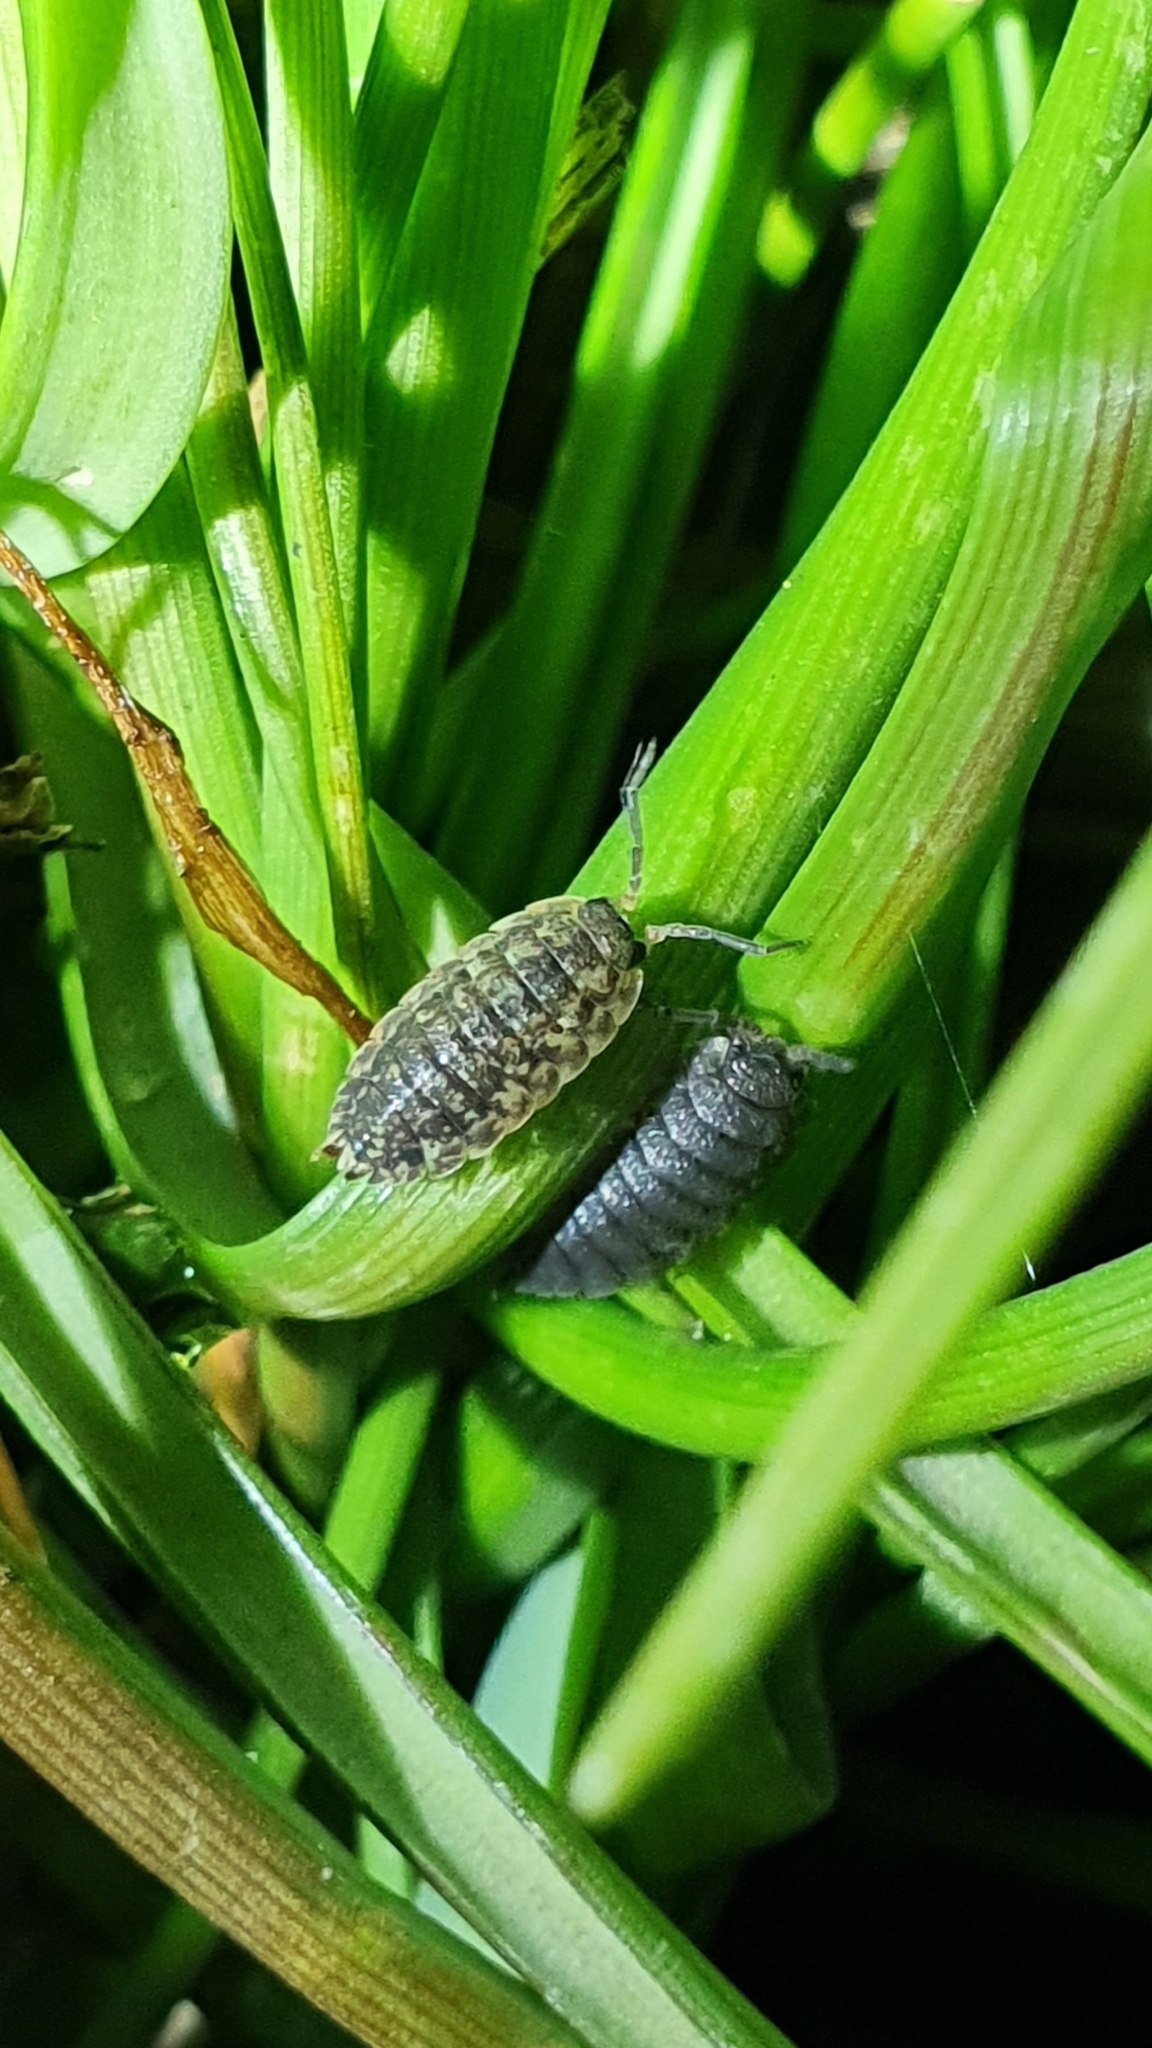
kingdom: Animalia
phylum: Arthropoda
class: Malacostraca
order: Isopoda
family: Porcellionidae
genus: Porcellio
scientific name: Porcellio scaber
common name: Common rough woodlouse
